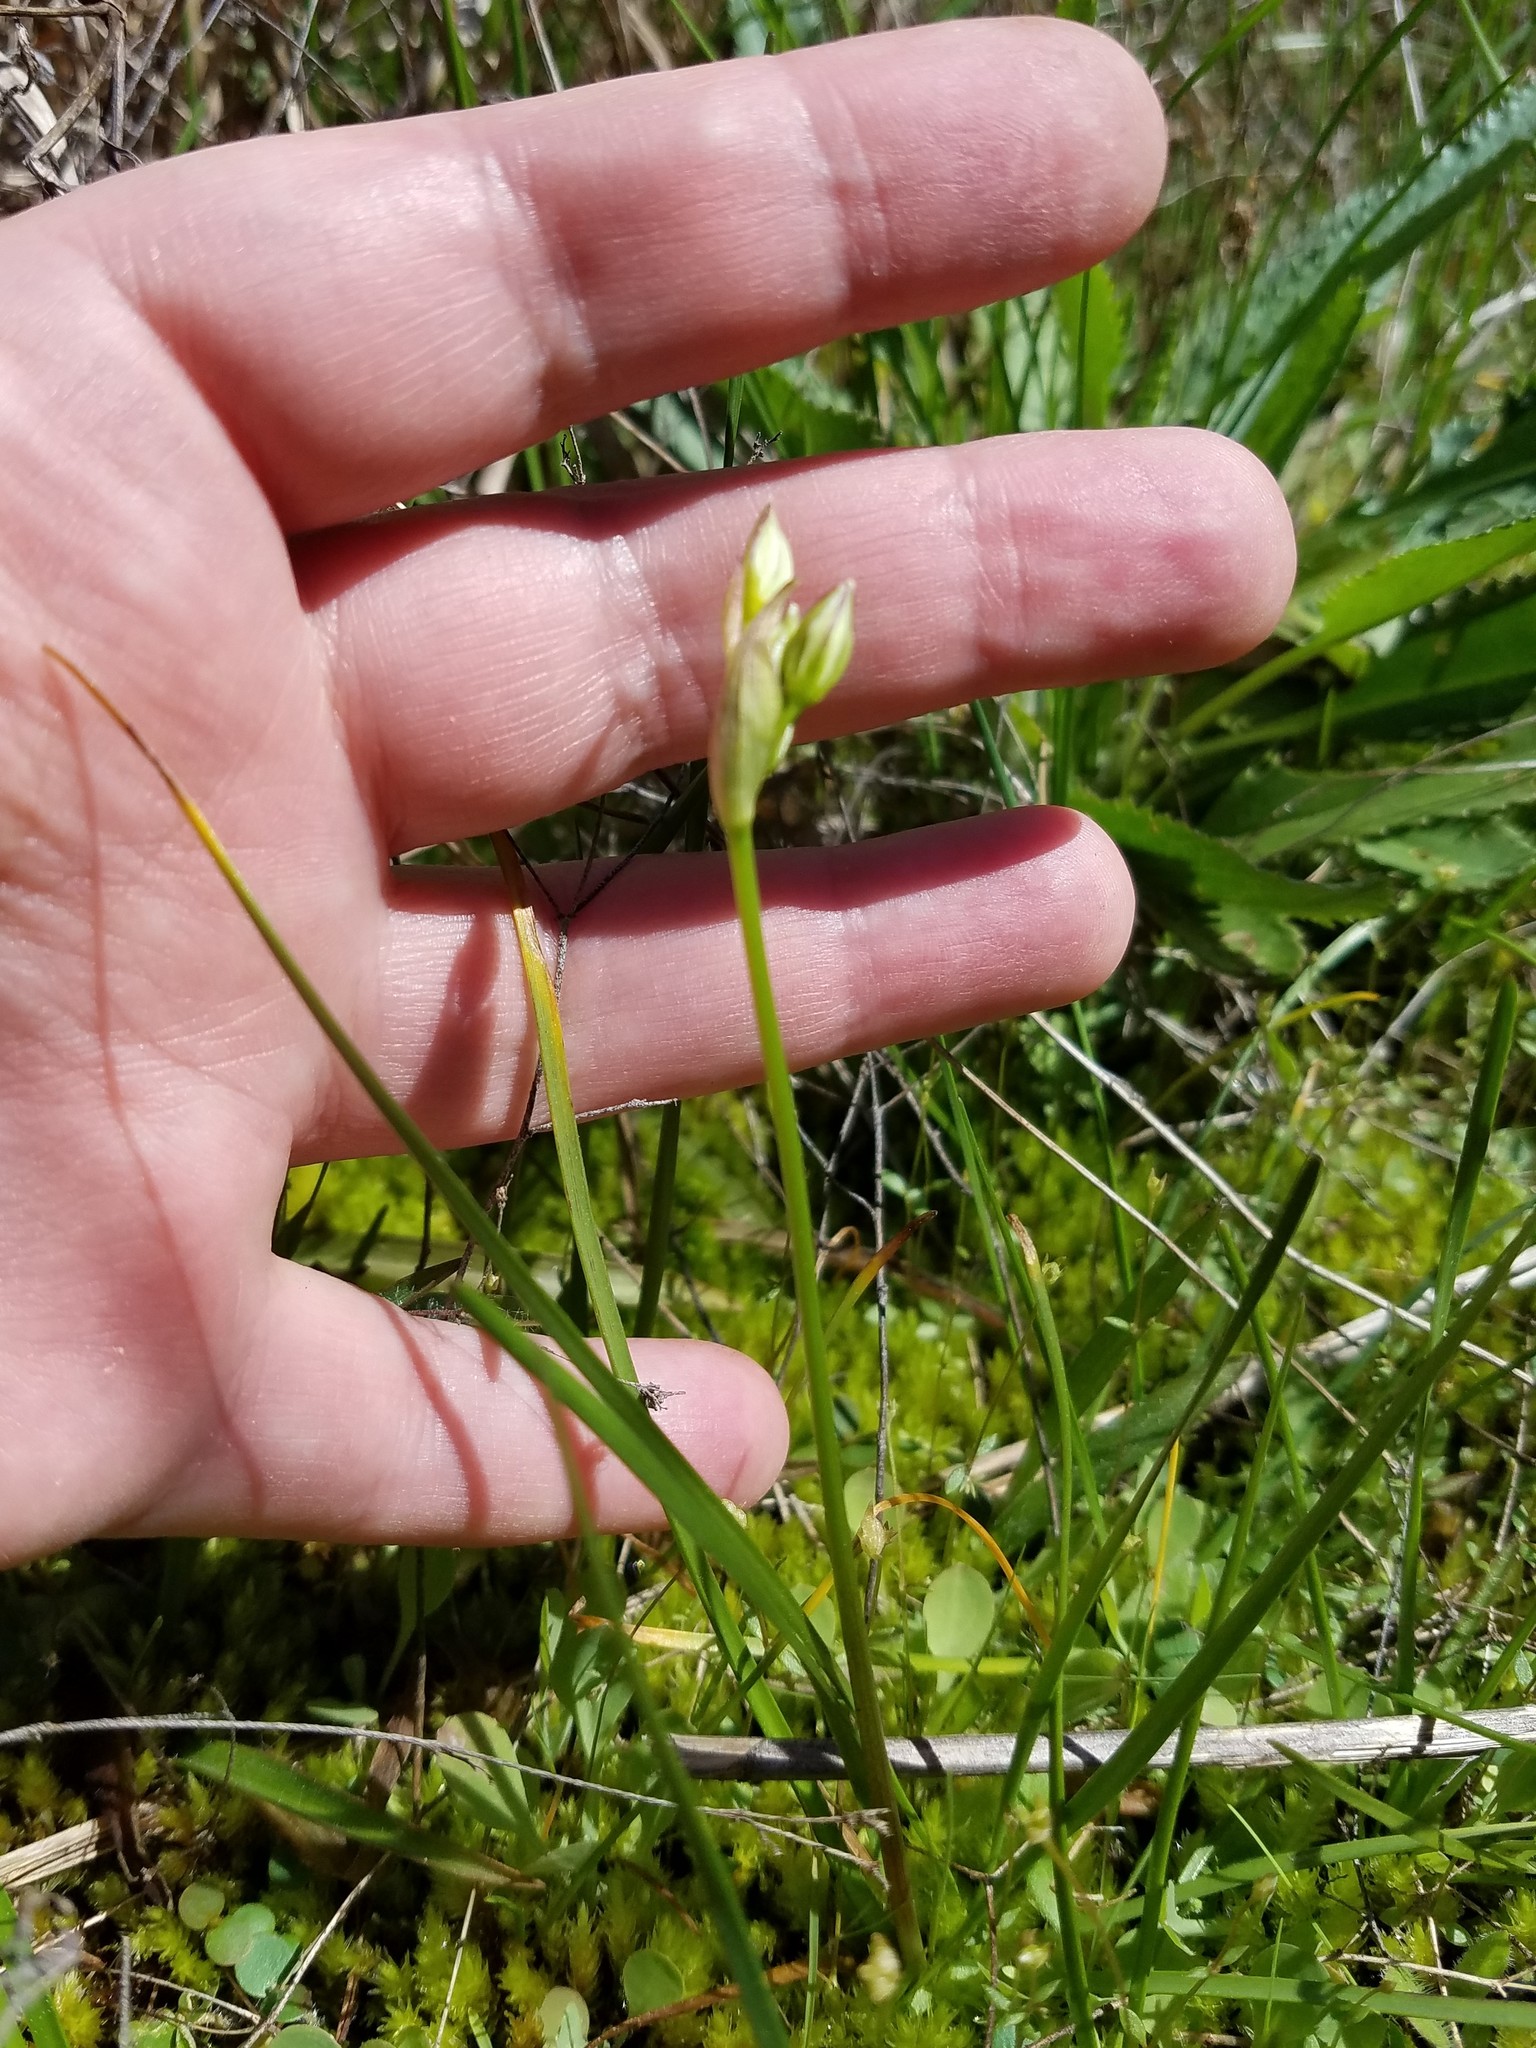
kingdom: Plantae
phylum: Tracheophyta
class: Liliopsida
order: Asparagales
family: Amaryllidaceae
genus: Nothoscordum
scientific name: Nothoscordum bivalve
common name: Crow-poison
